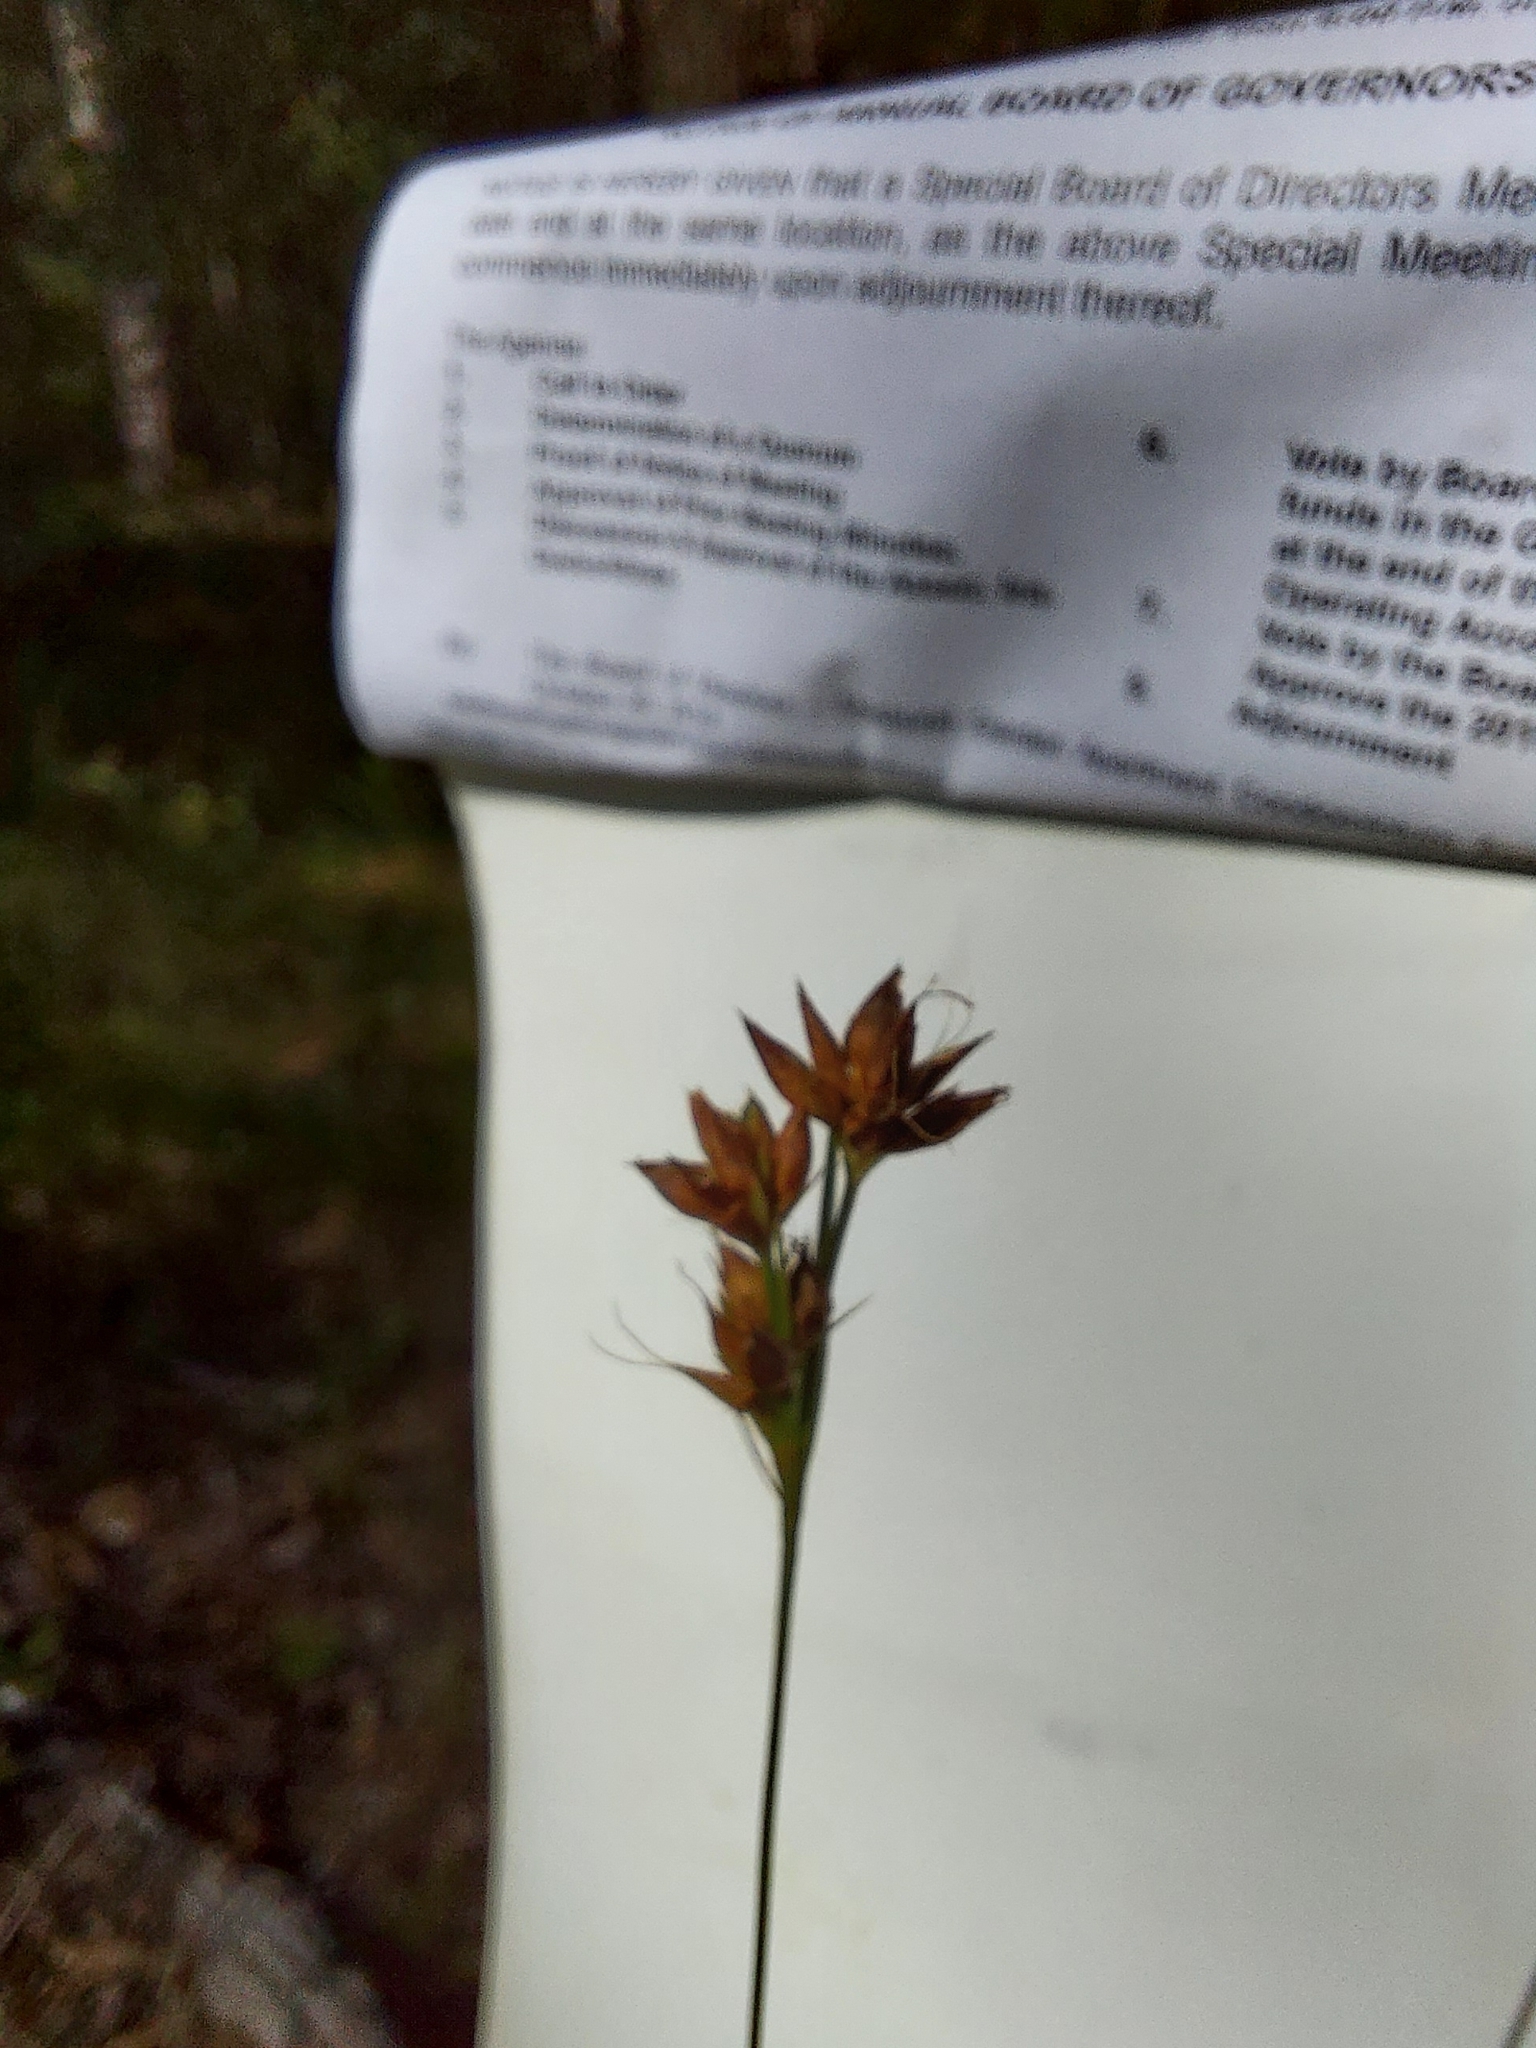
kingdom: Plantae
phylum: Tracheophyta
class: Liliopsida
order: Poales
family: Cyperaceae
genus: Rhynchospora
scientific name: Rhynchospora grayi
